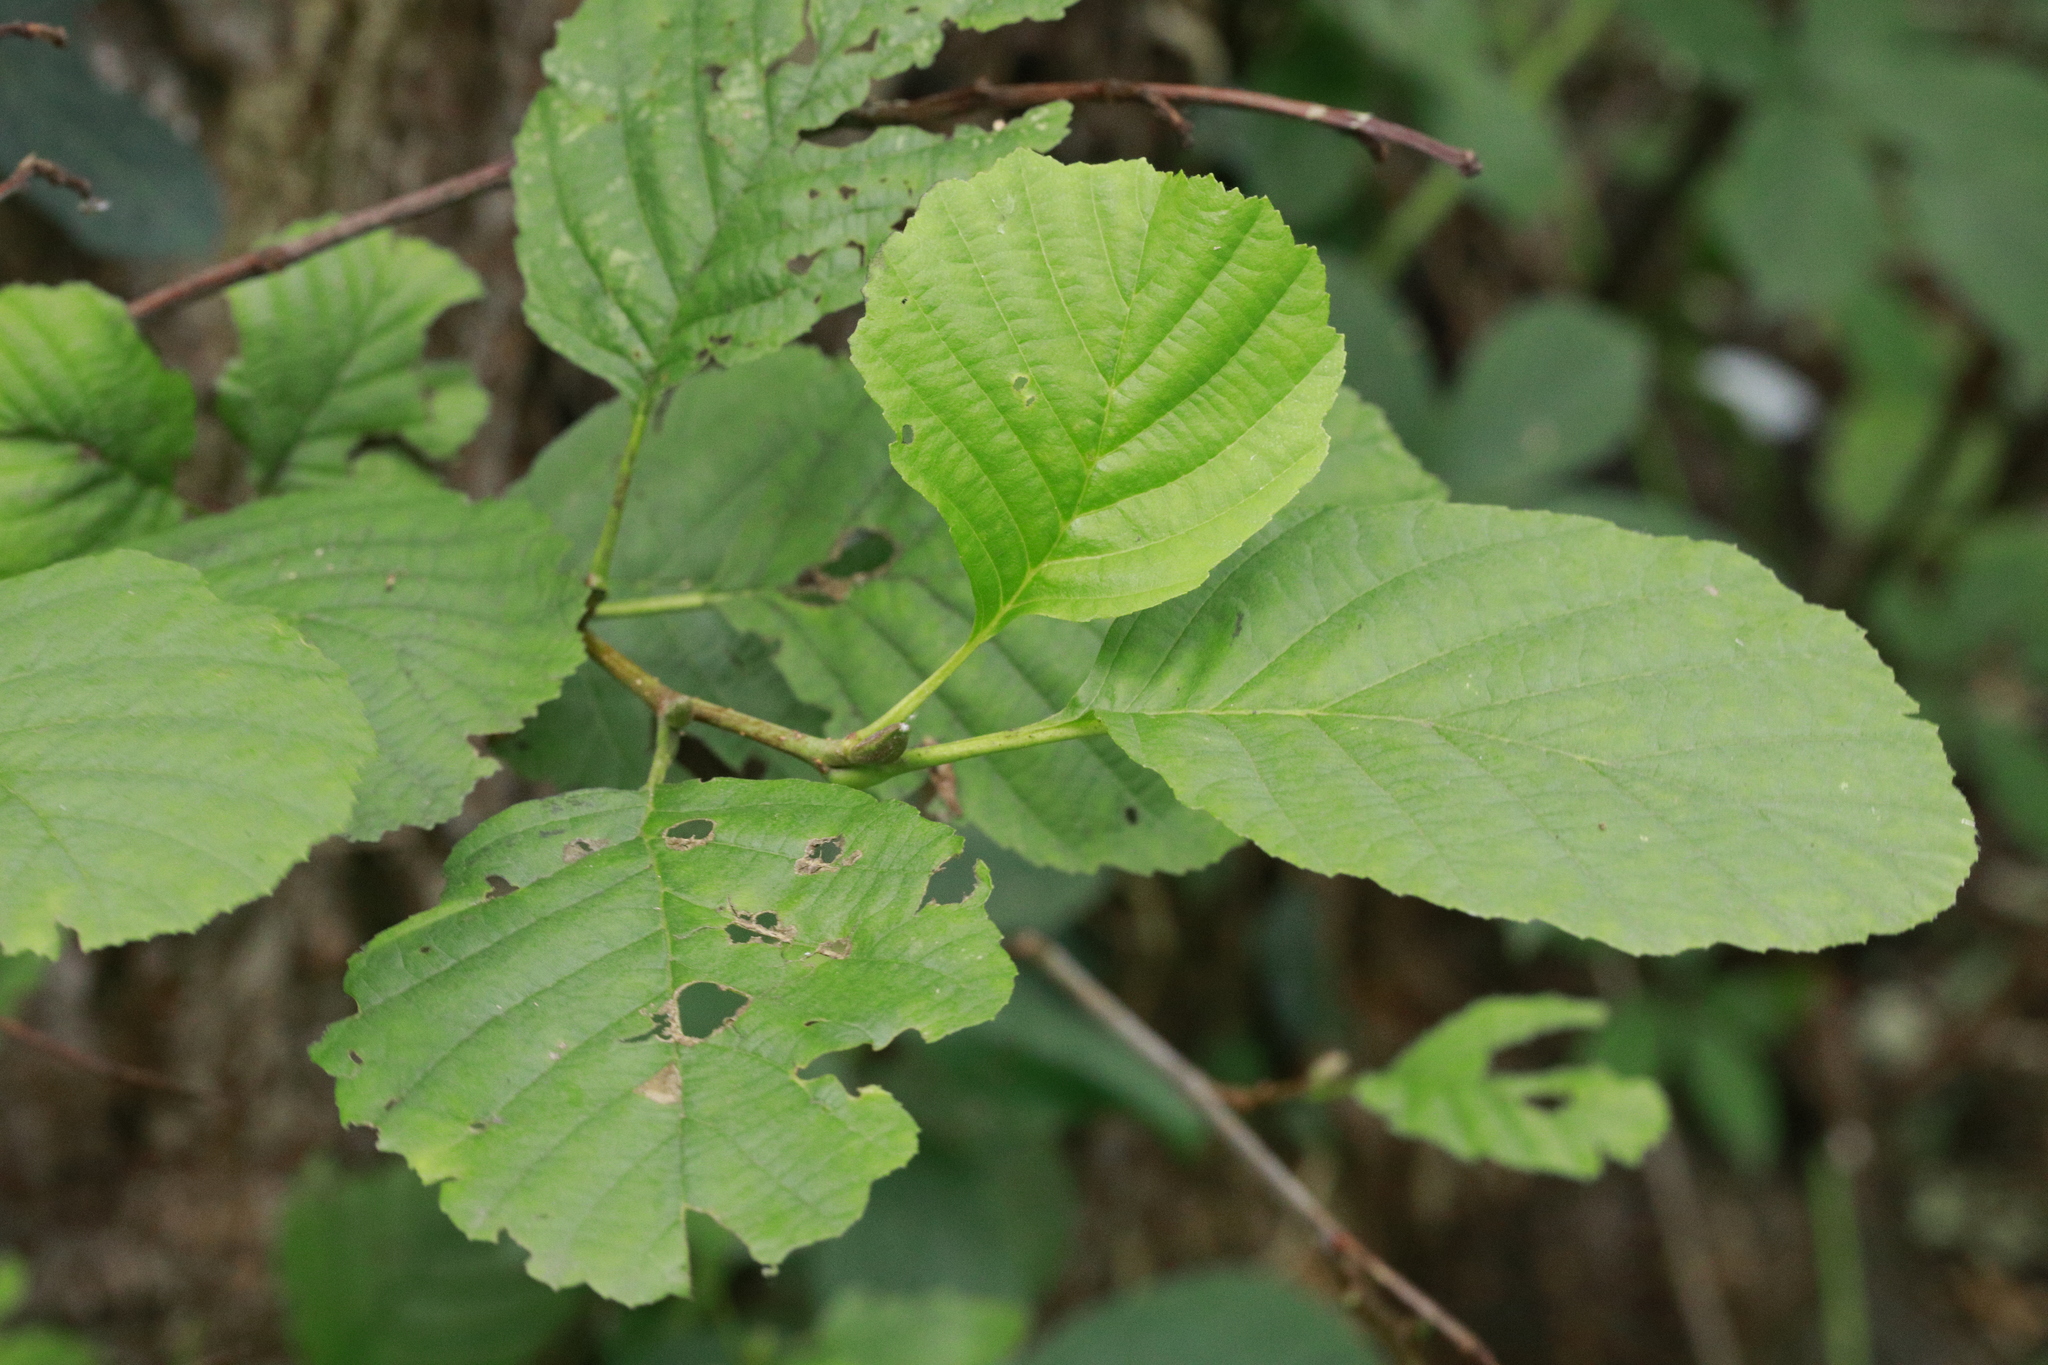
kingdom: Plantae
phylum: Tracheophyta
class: Magnoliopsida
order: Fagales
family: Betulaceae
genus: Alnus
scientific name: Alnus glutinosa
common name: Black alder
